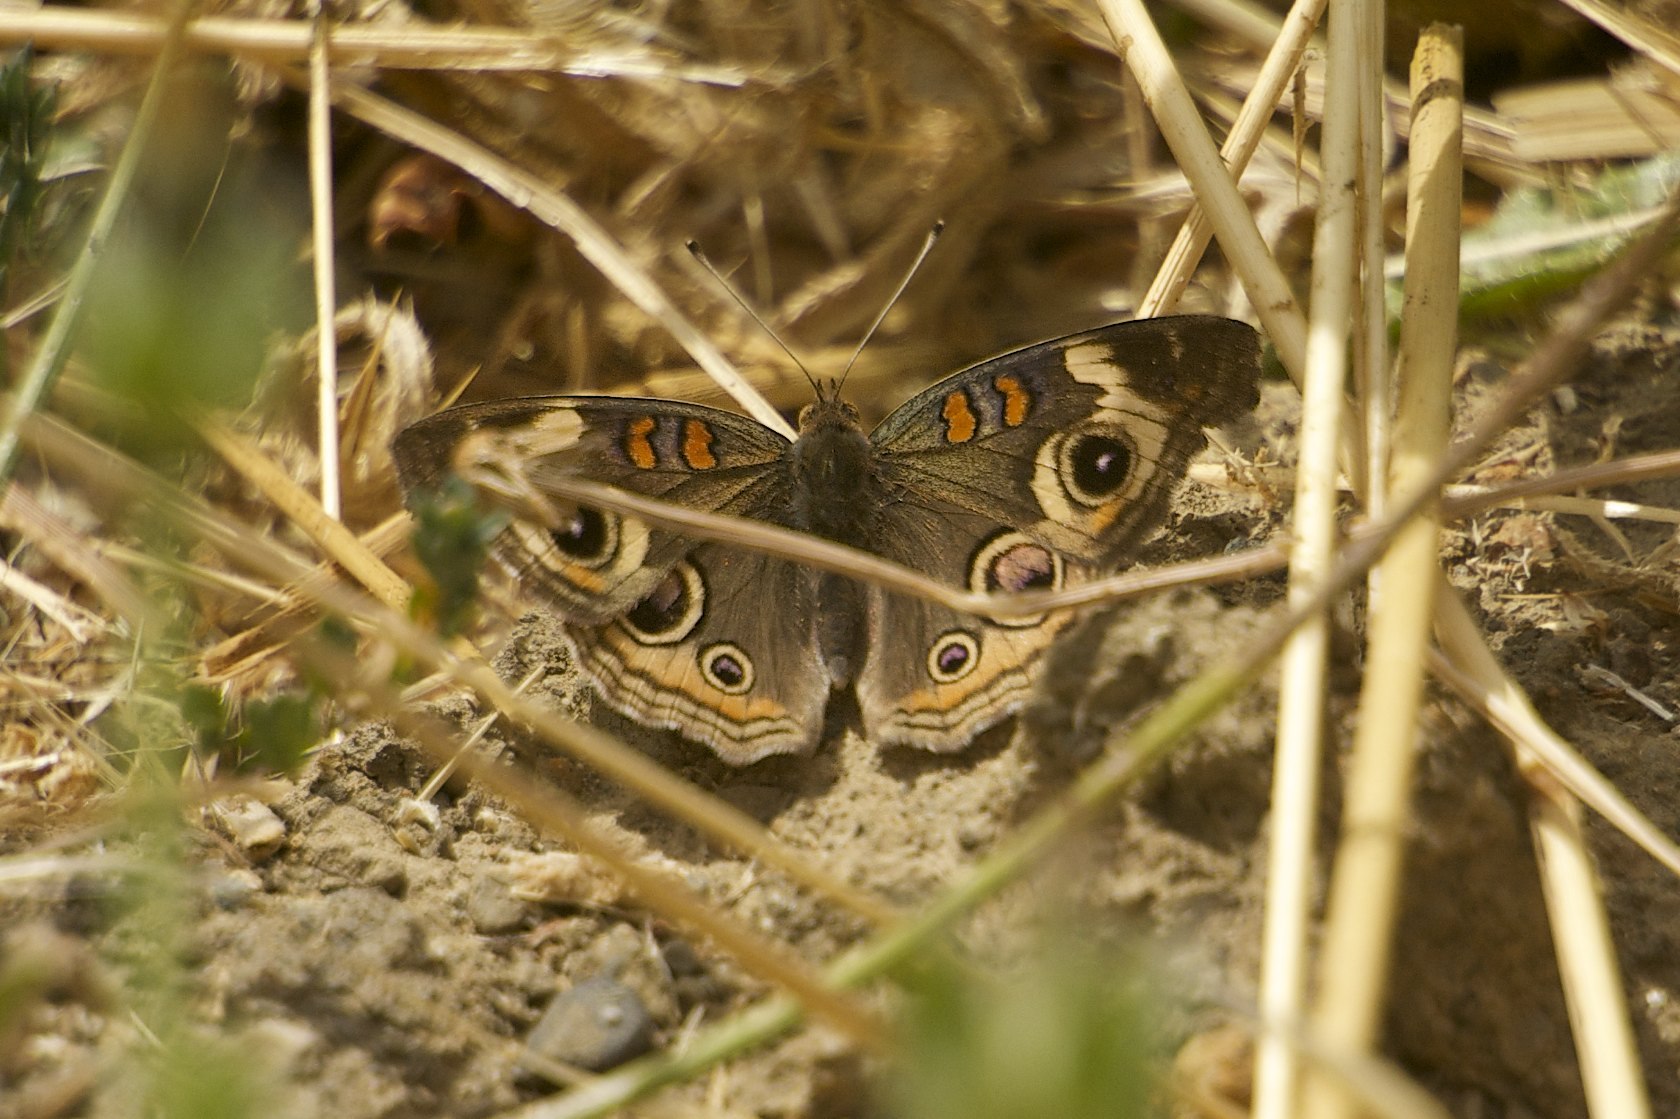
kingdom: Animalia
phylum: Arthropoda
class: Insecta
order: Lepidoptera
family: Nymphalidae
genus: Junonia
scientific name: Junonia grisea
